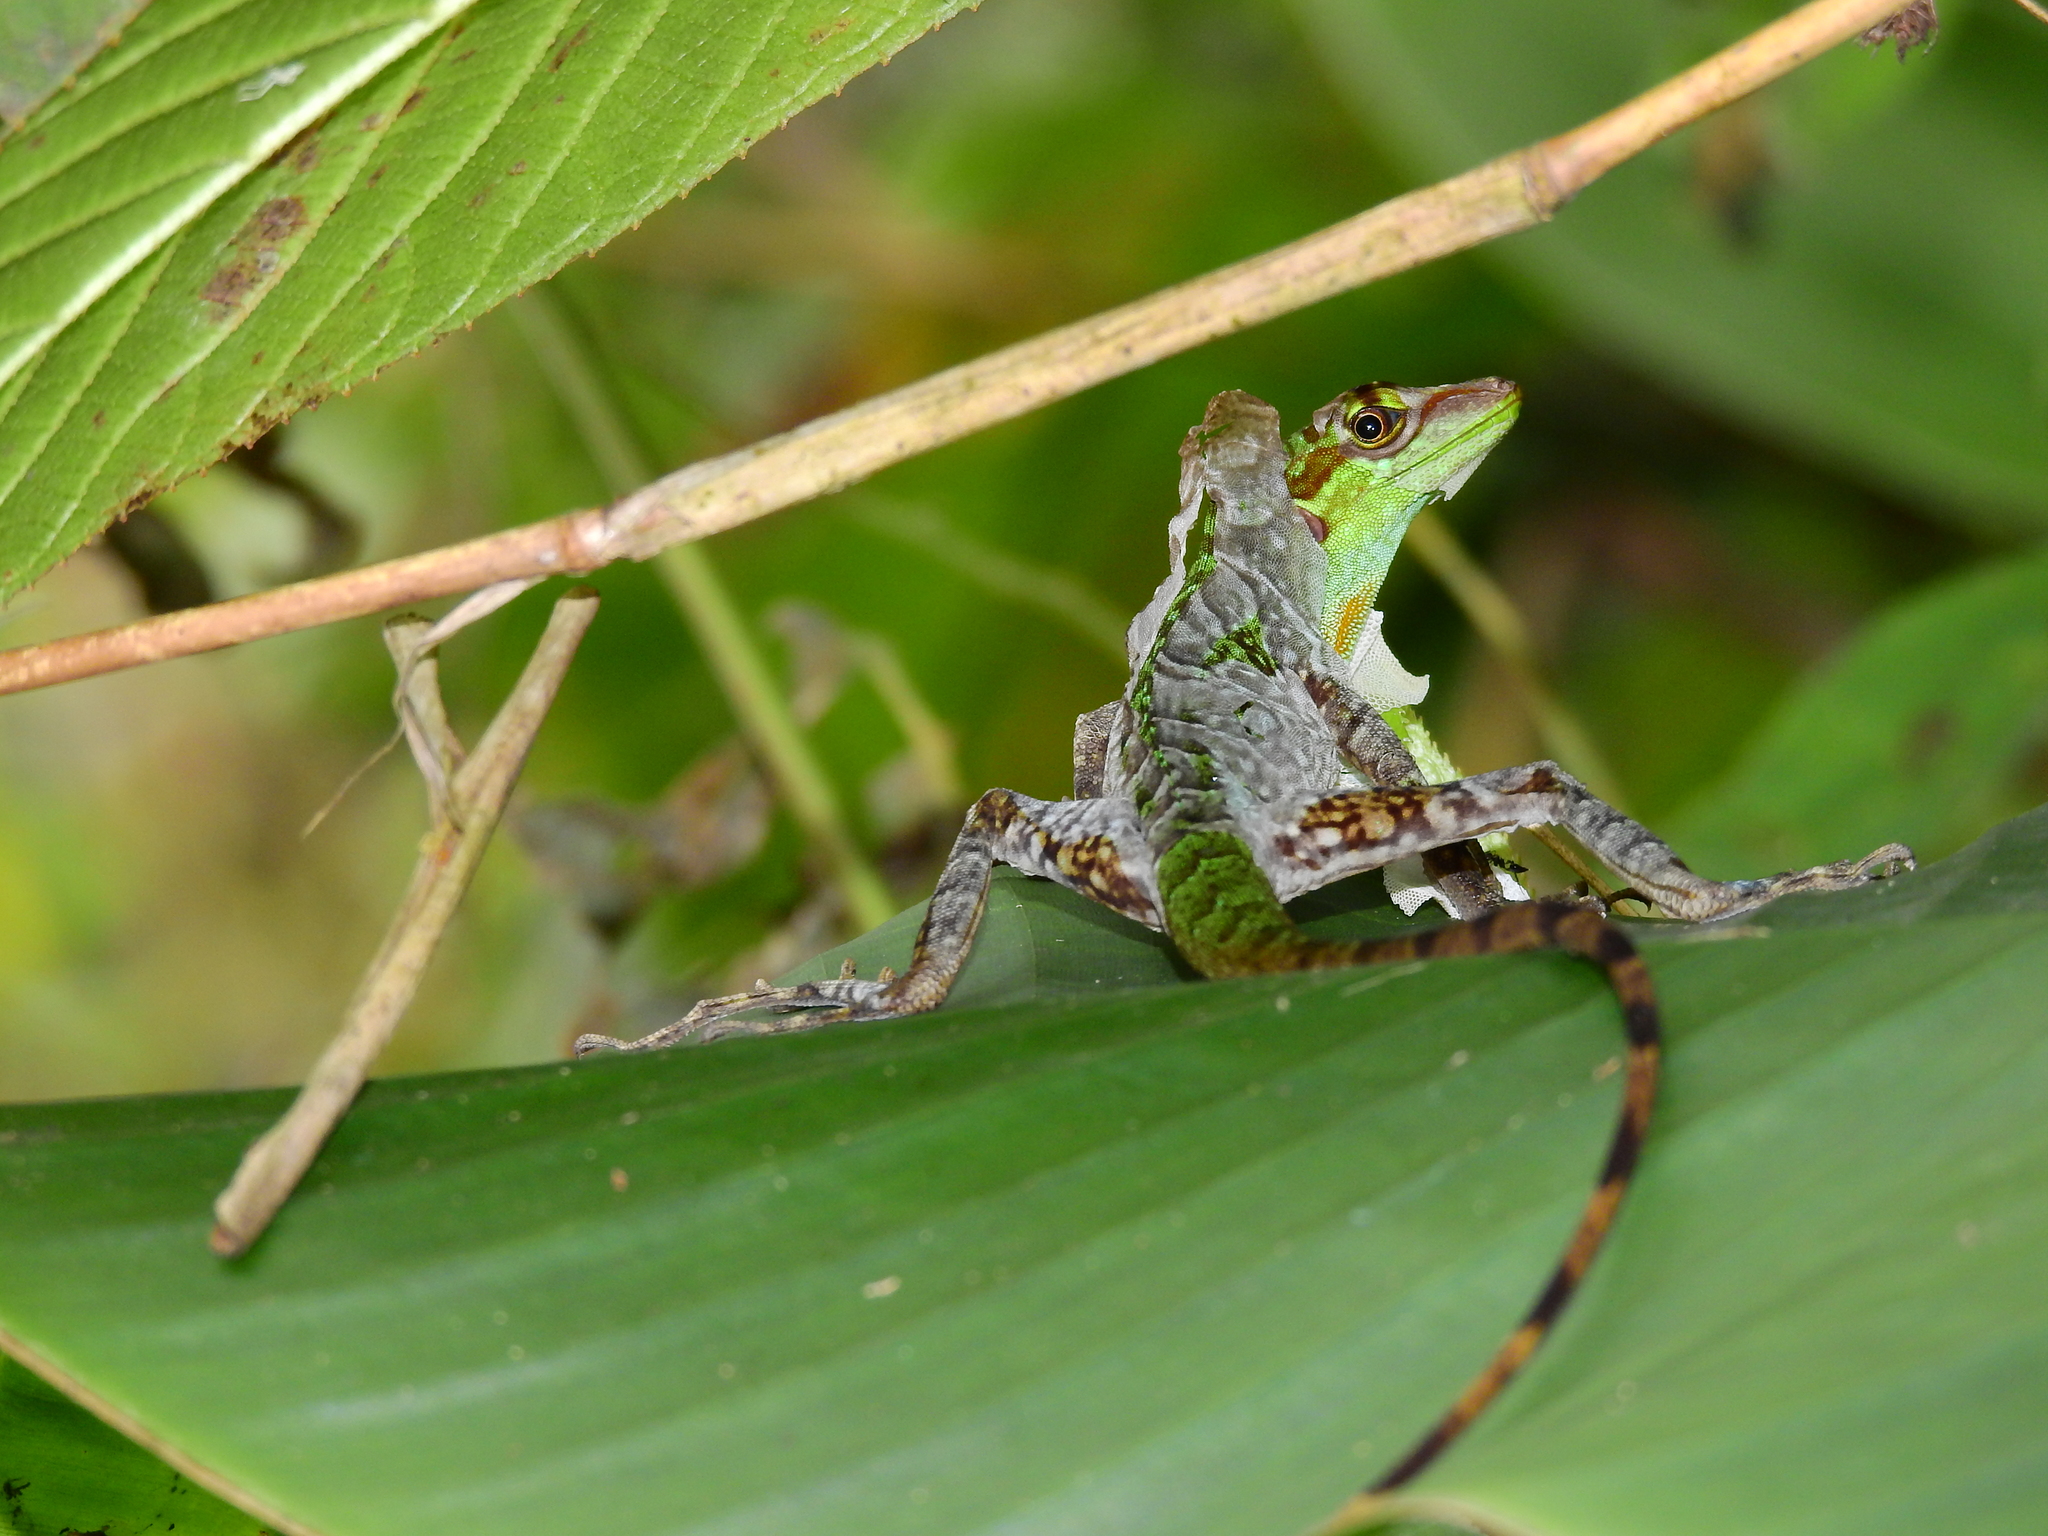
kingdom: Animalia
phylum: Chordata
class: Squamata
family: Dactyloidae
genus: Anolis
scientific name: Anolis ventrimaculatus
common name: Speckled anole
